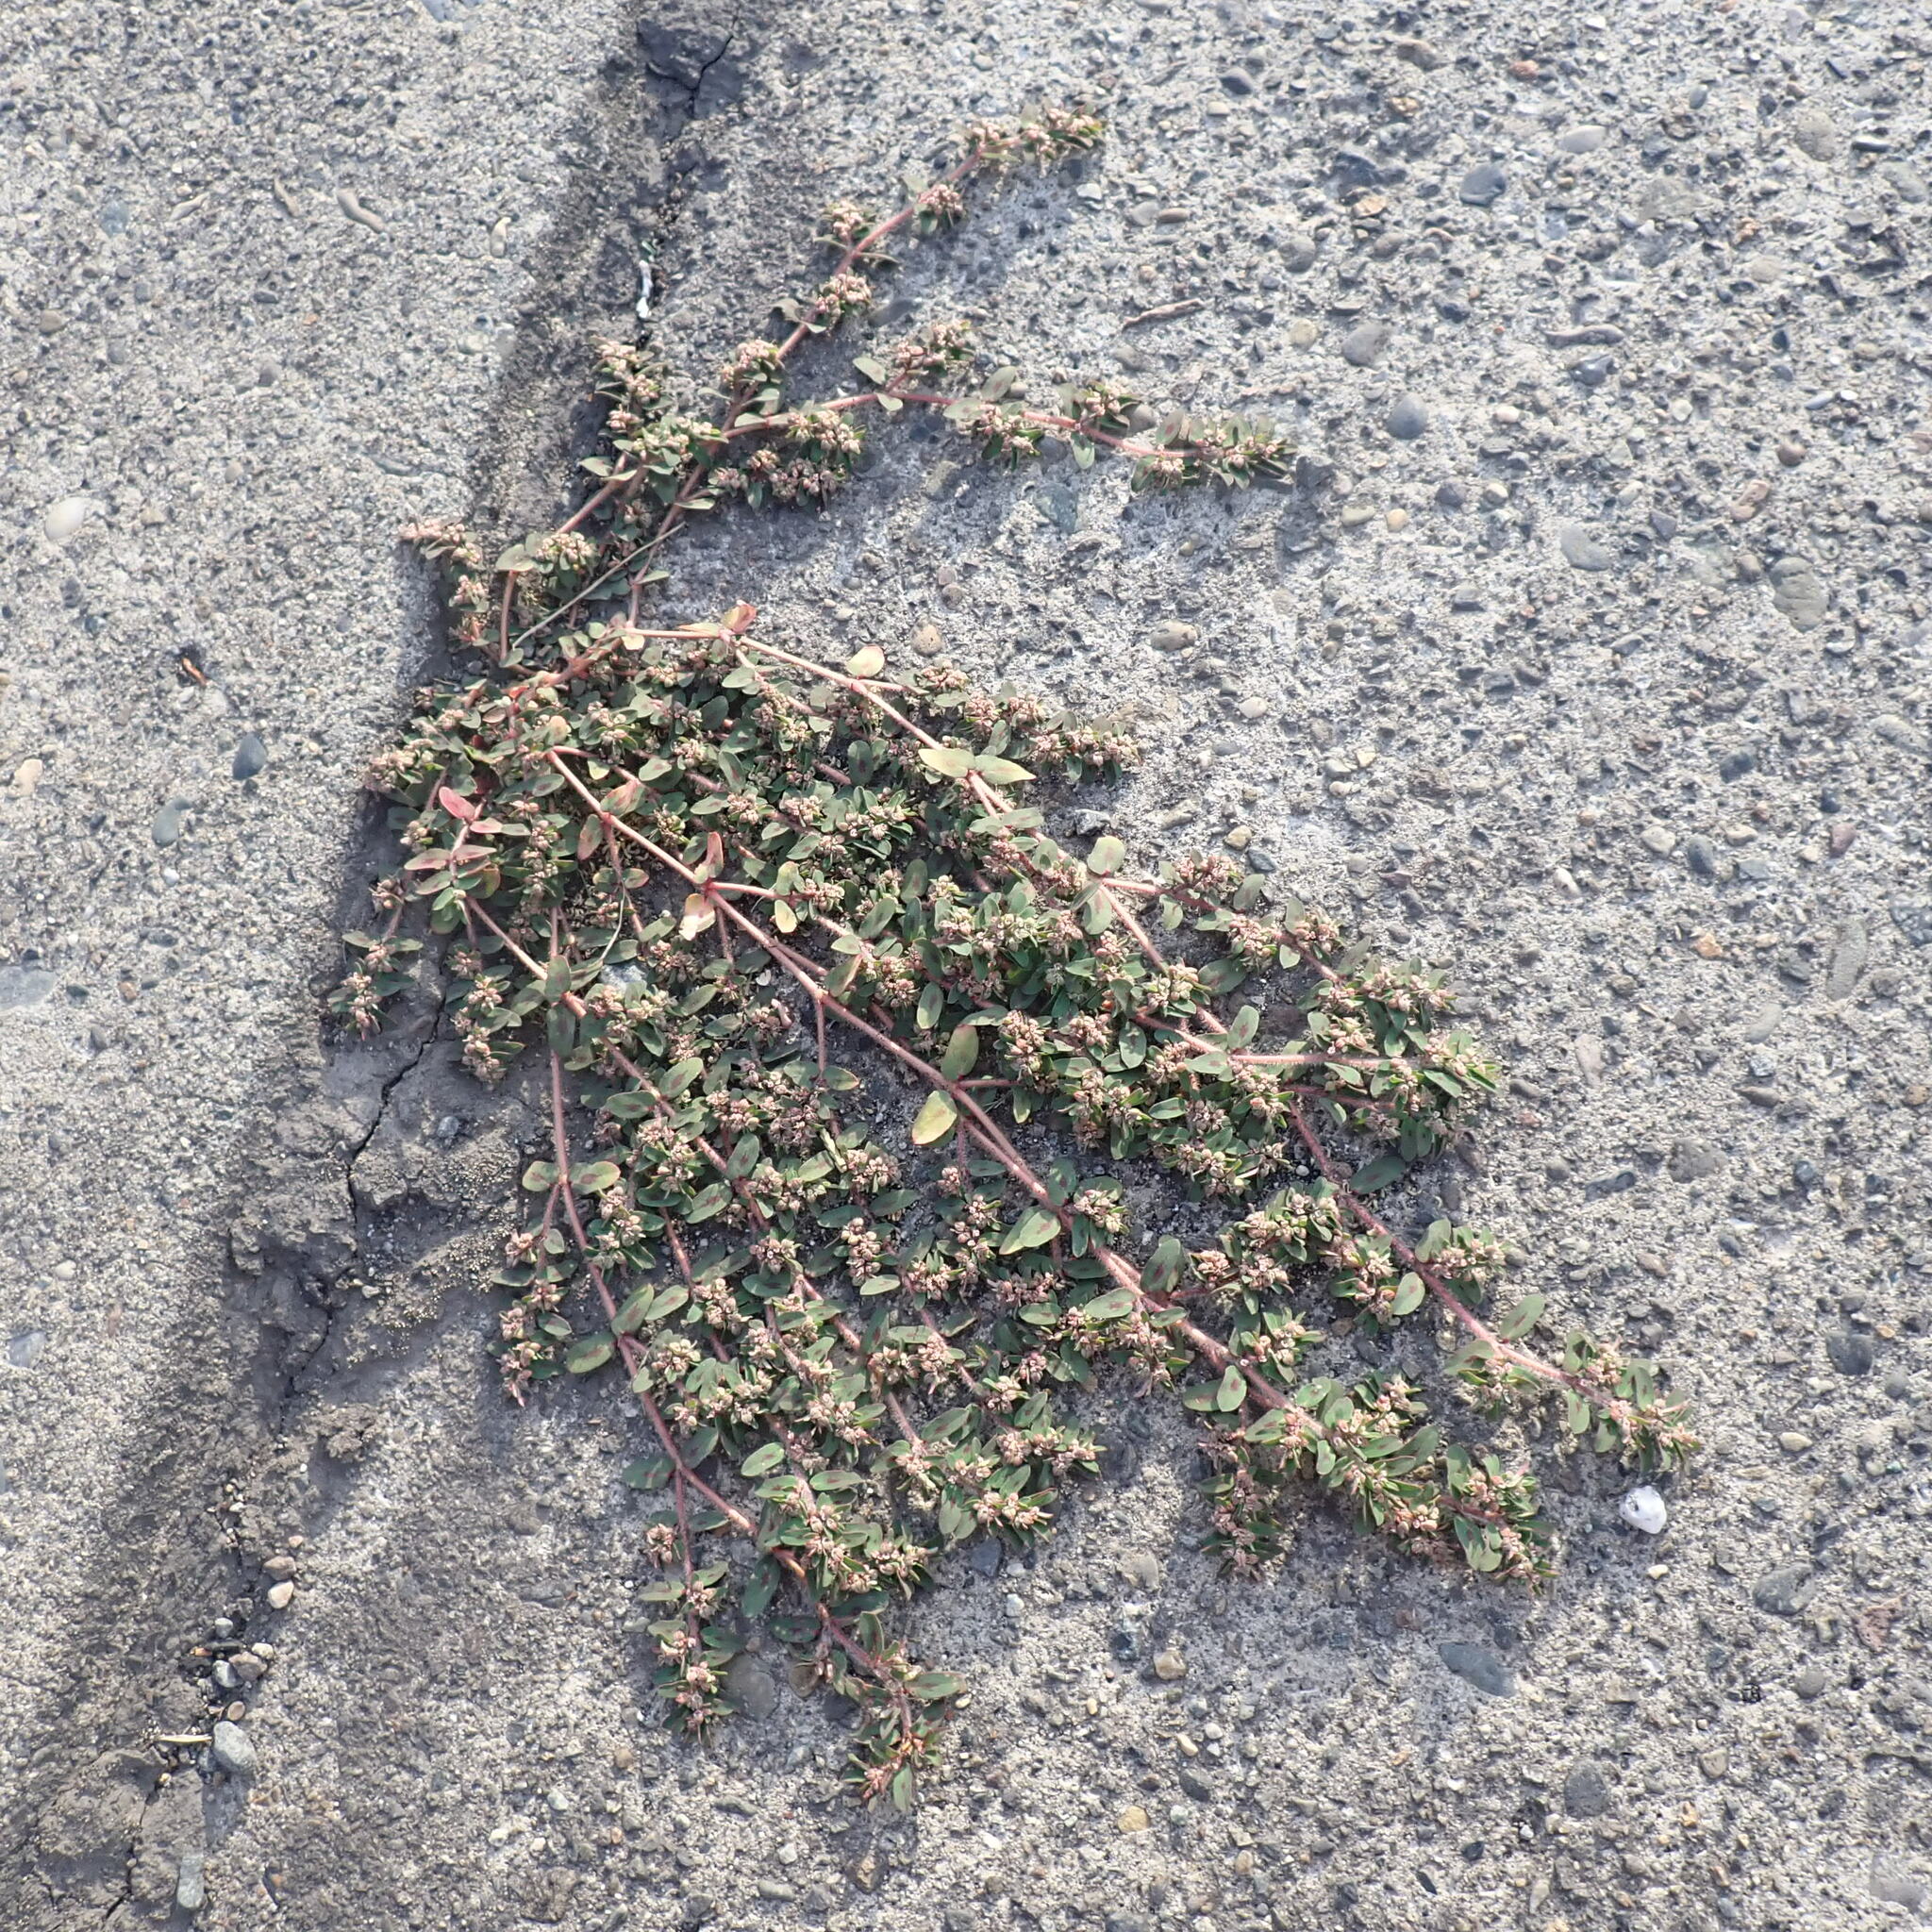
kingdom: Plantae
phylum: Tracheophyta
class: Magnoliopsida
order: Malpighiales
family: Euphorbiaceae
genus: Euphorbia
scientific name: Euphorbia maculata
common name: Spotted spurge
